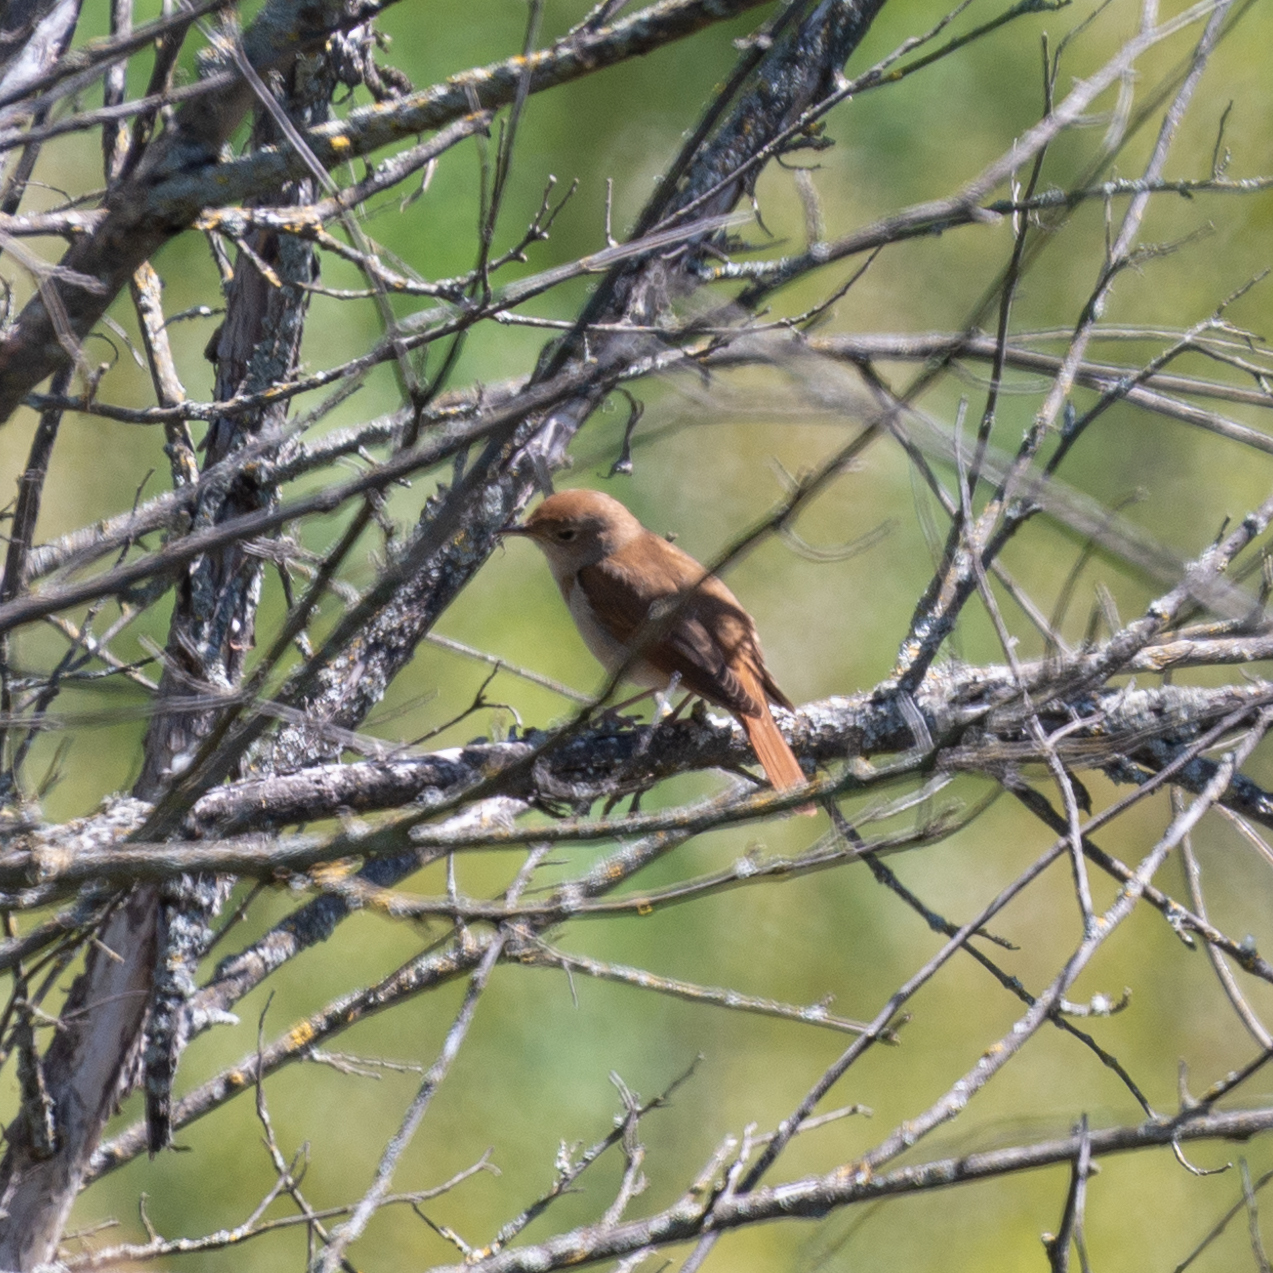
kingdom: Animalia
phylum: Chordata
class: Aves
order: Passeriformes
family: Muscicapidae
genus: Luscinia
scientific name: Luscinia megarhynchos
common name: Common nightingale
